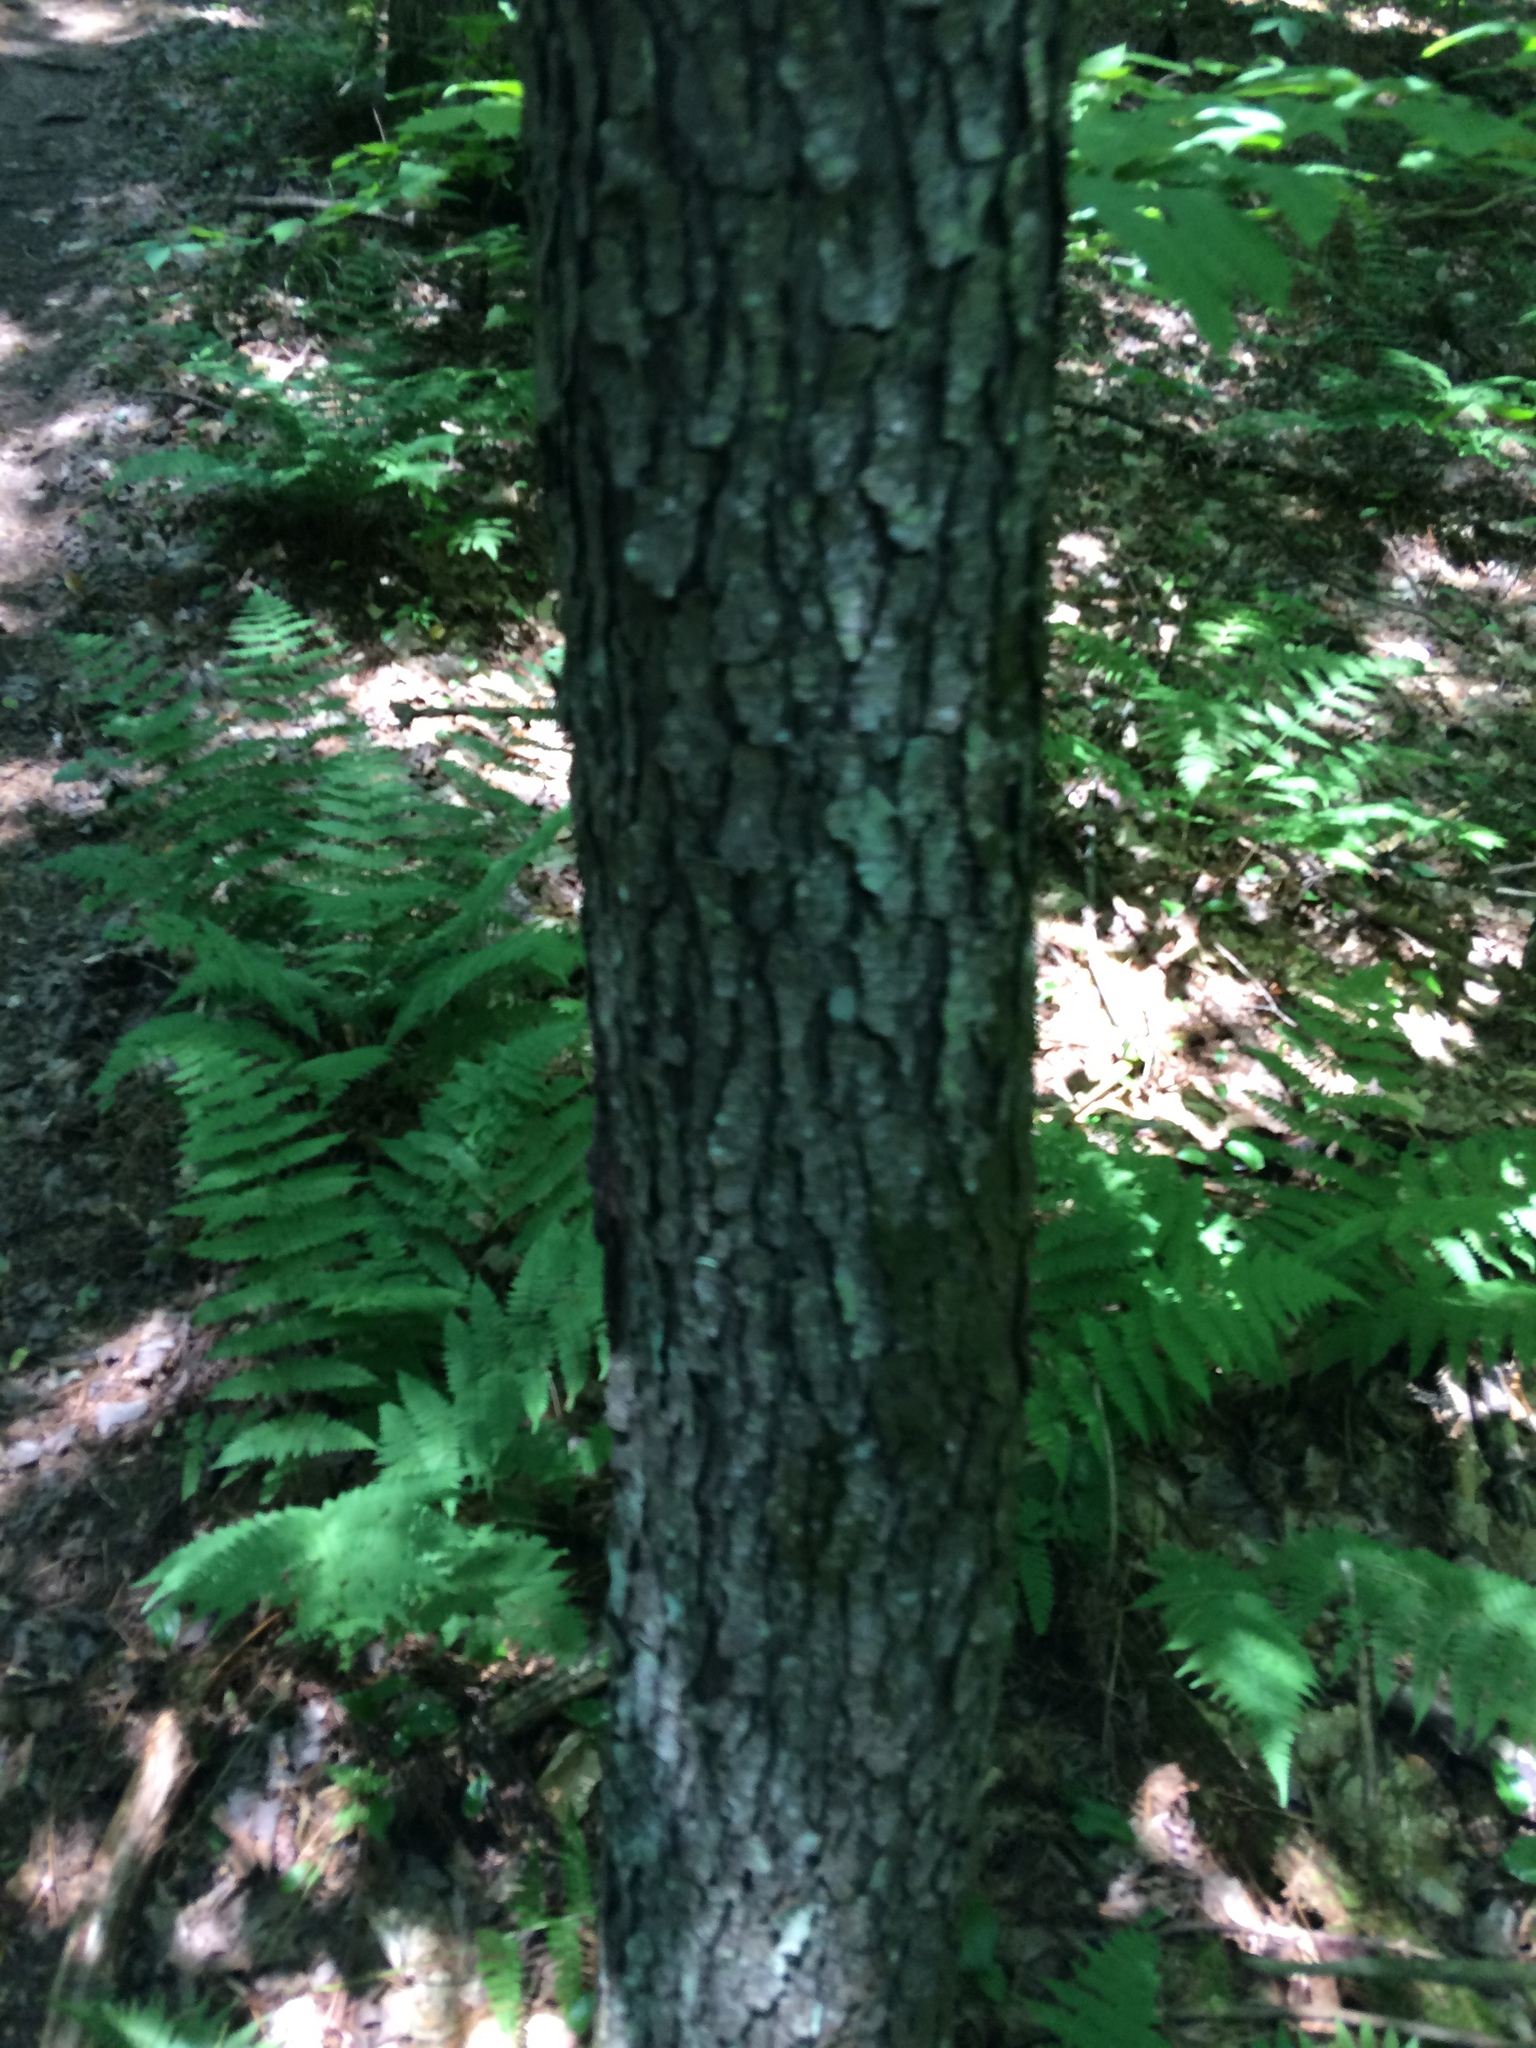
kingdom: Plantae
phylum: Tracheophyta
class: Magnoliopsida
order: Rosales
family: Rosaceae
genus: Prunus
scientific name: Prunus serotina
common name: Black cherry
